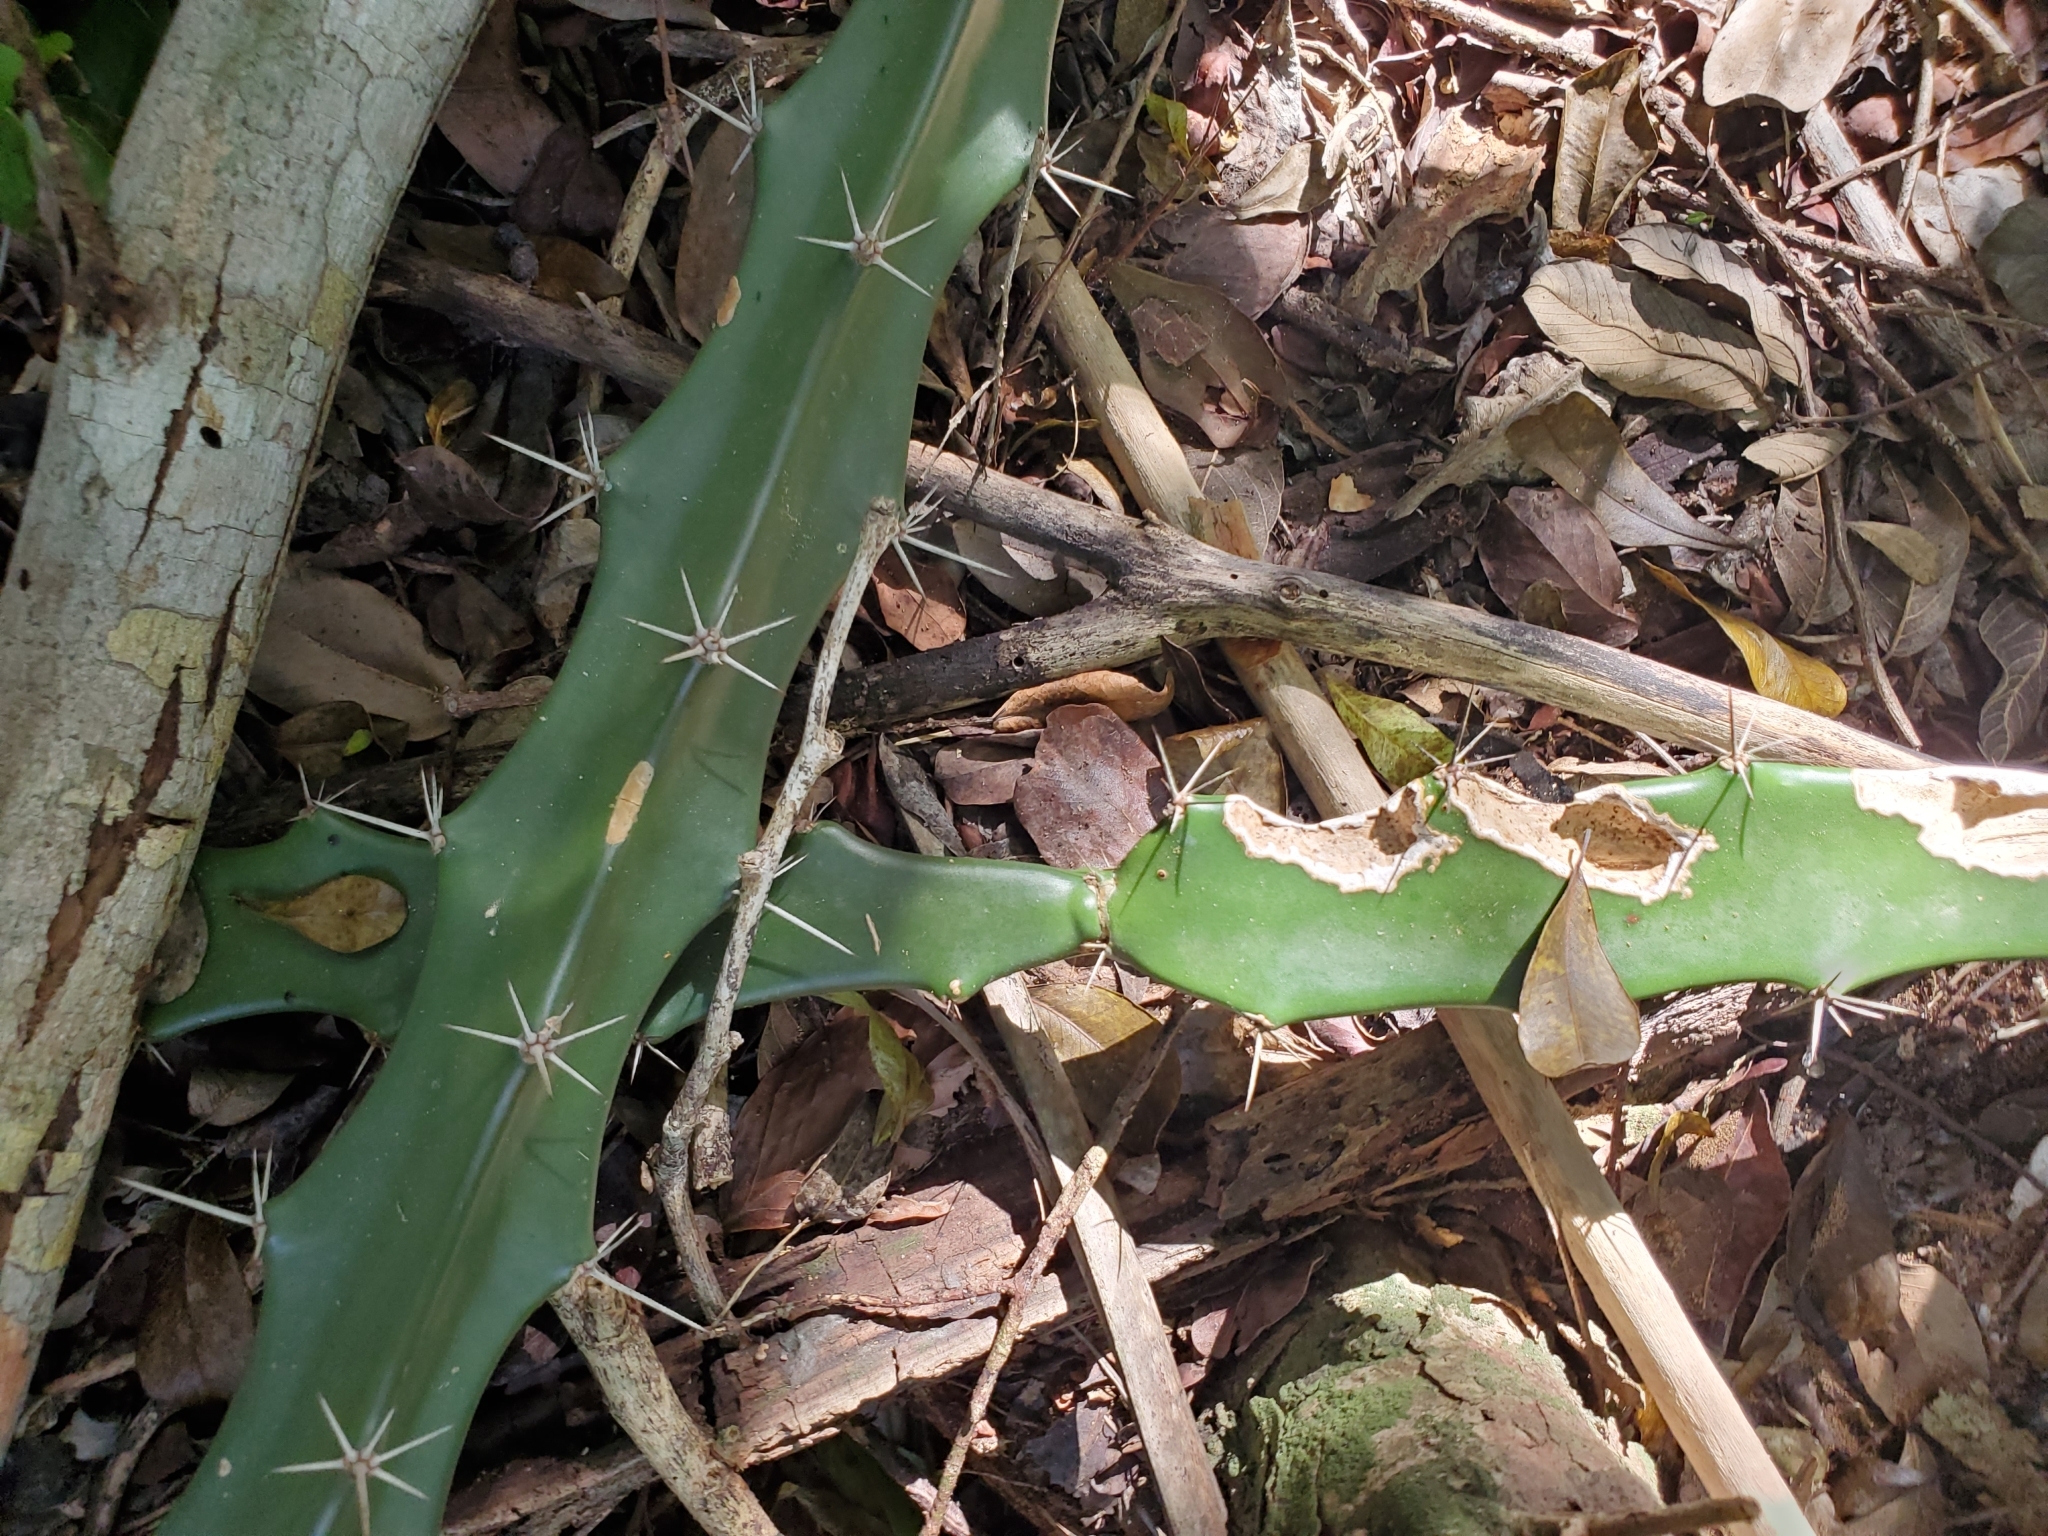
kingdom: Plantae
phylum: Tracheophyta
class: Magnoliopsida
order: Caryophyllales
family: Cactaceae
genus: Acanthocereus
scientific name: Acanthocereus tetragonus
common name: Triangle cactus
